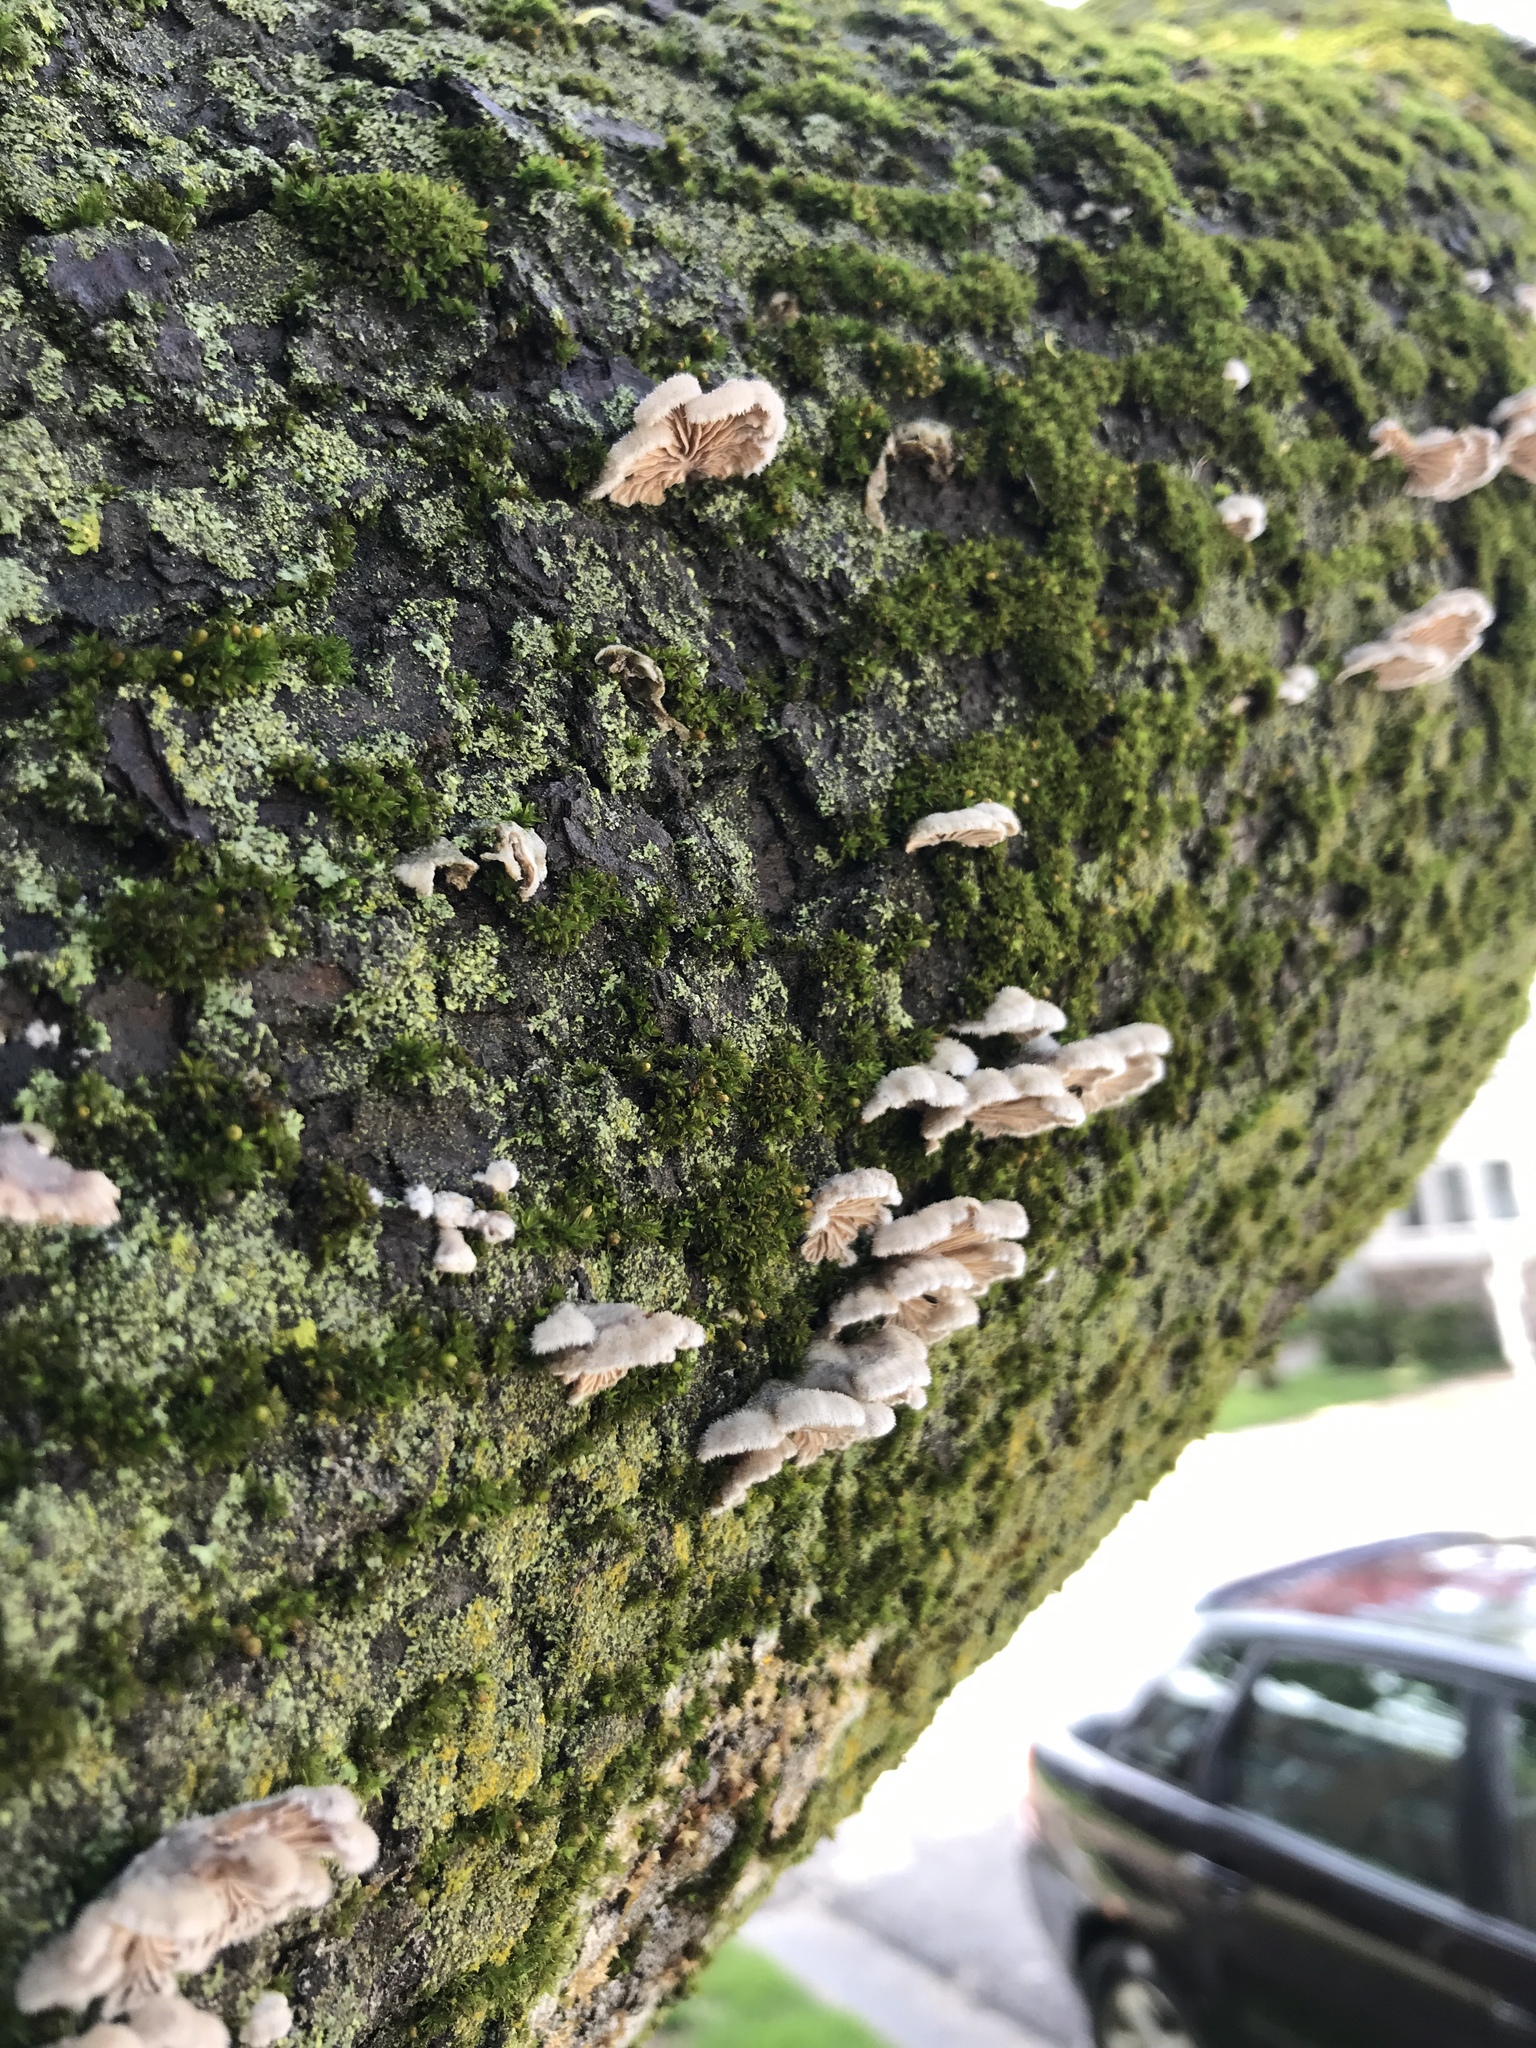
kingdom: Fungi
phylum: Basidiomycota
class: Agaricomycetes
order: Agaricales
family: Schizophyllaceae
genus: Schizophyllum
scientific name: Schizophyllum commune
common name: Common porecrust
